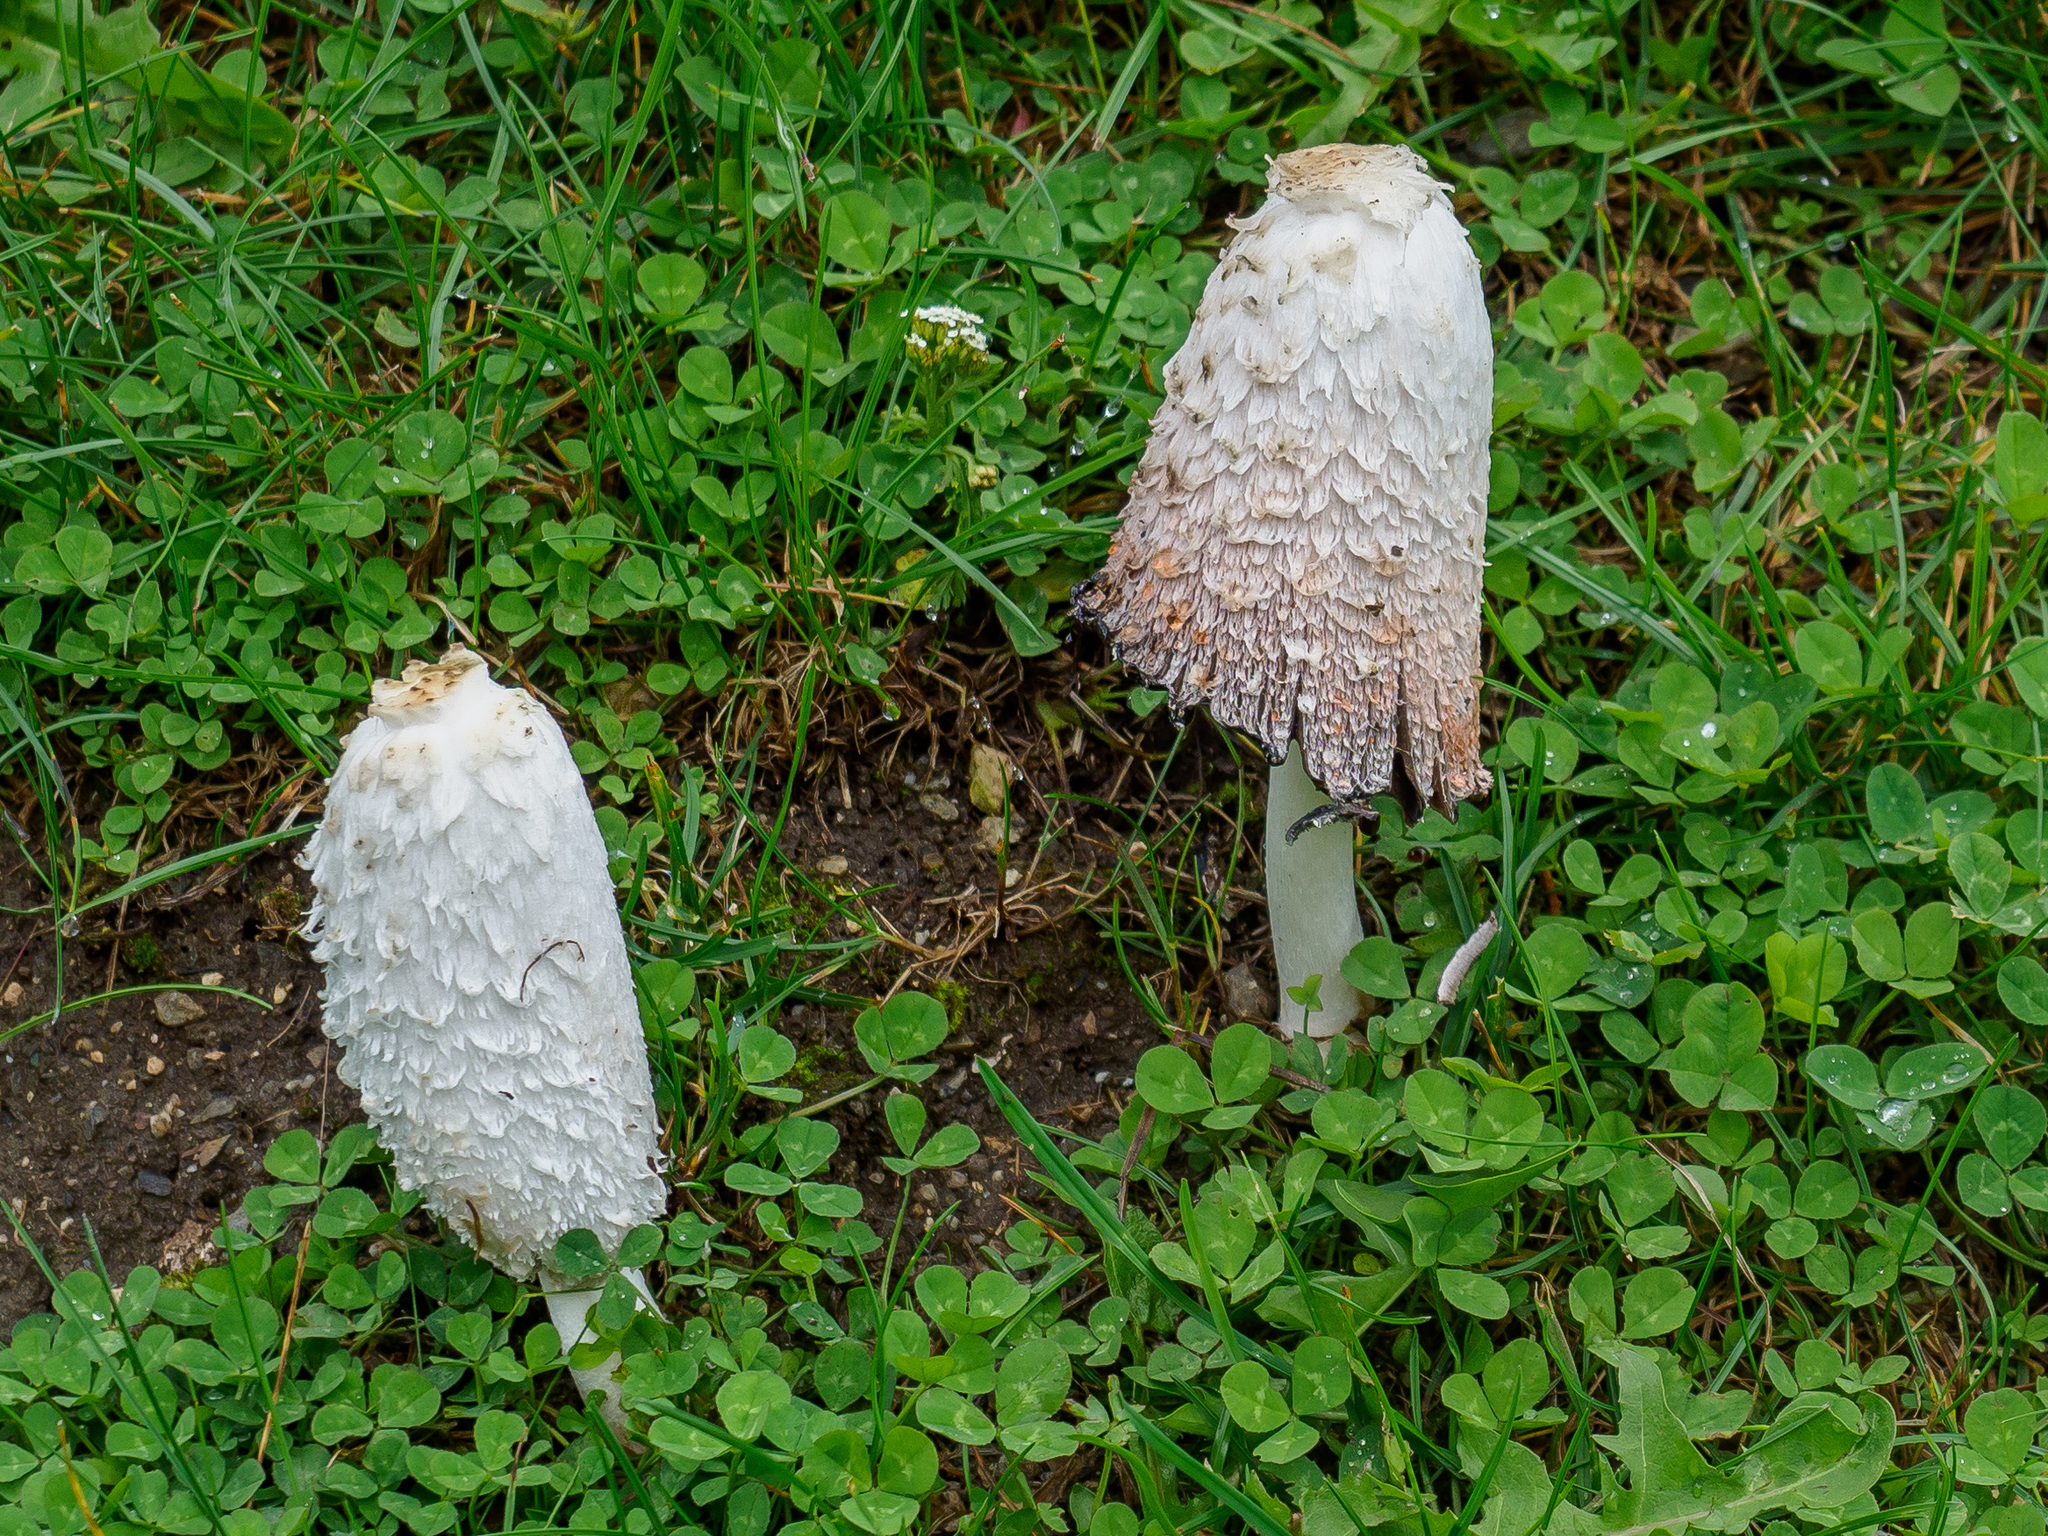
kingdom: Fungi
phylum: Basidiomycota
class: Agaricomycetes
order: Agaricales
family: Agaricaceae
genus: Coprinus
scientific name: Coprinus comatus
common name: Lawyer's wig
